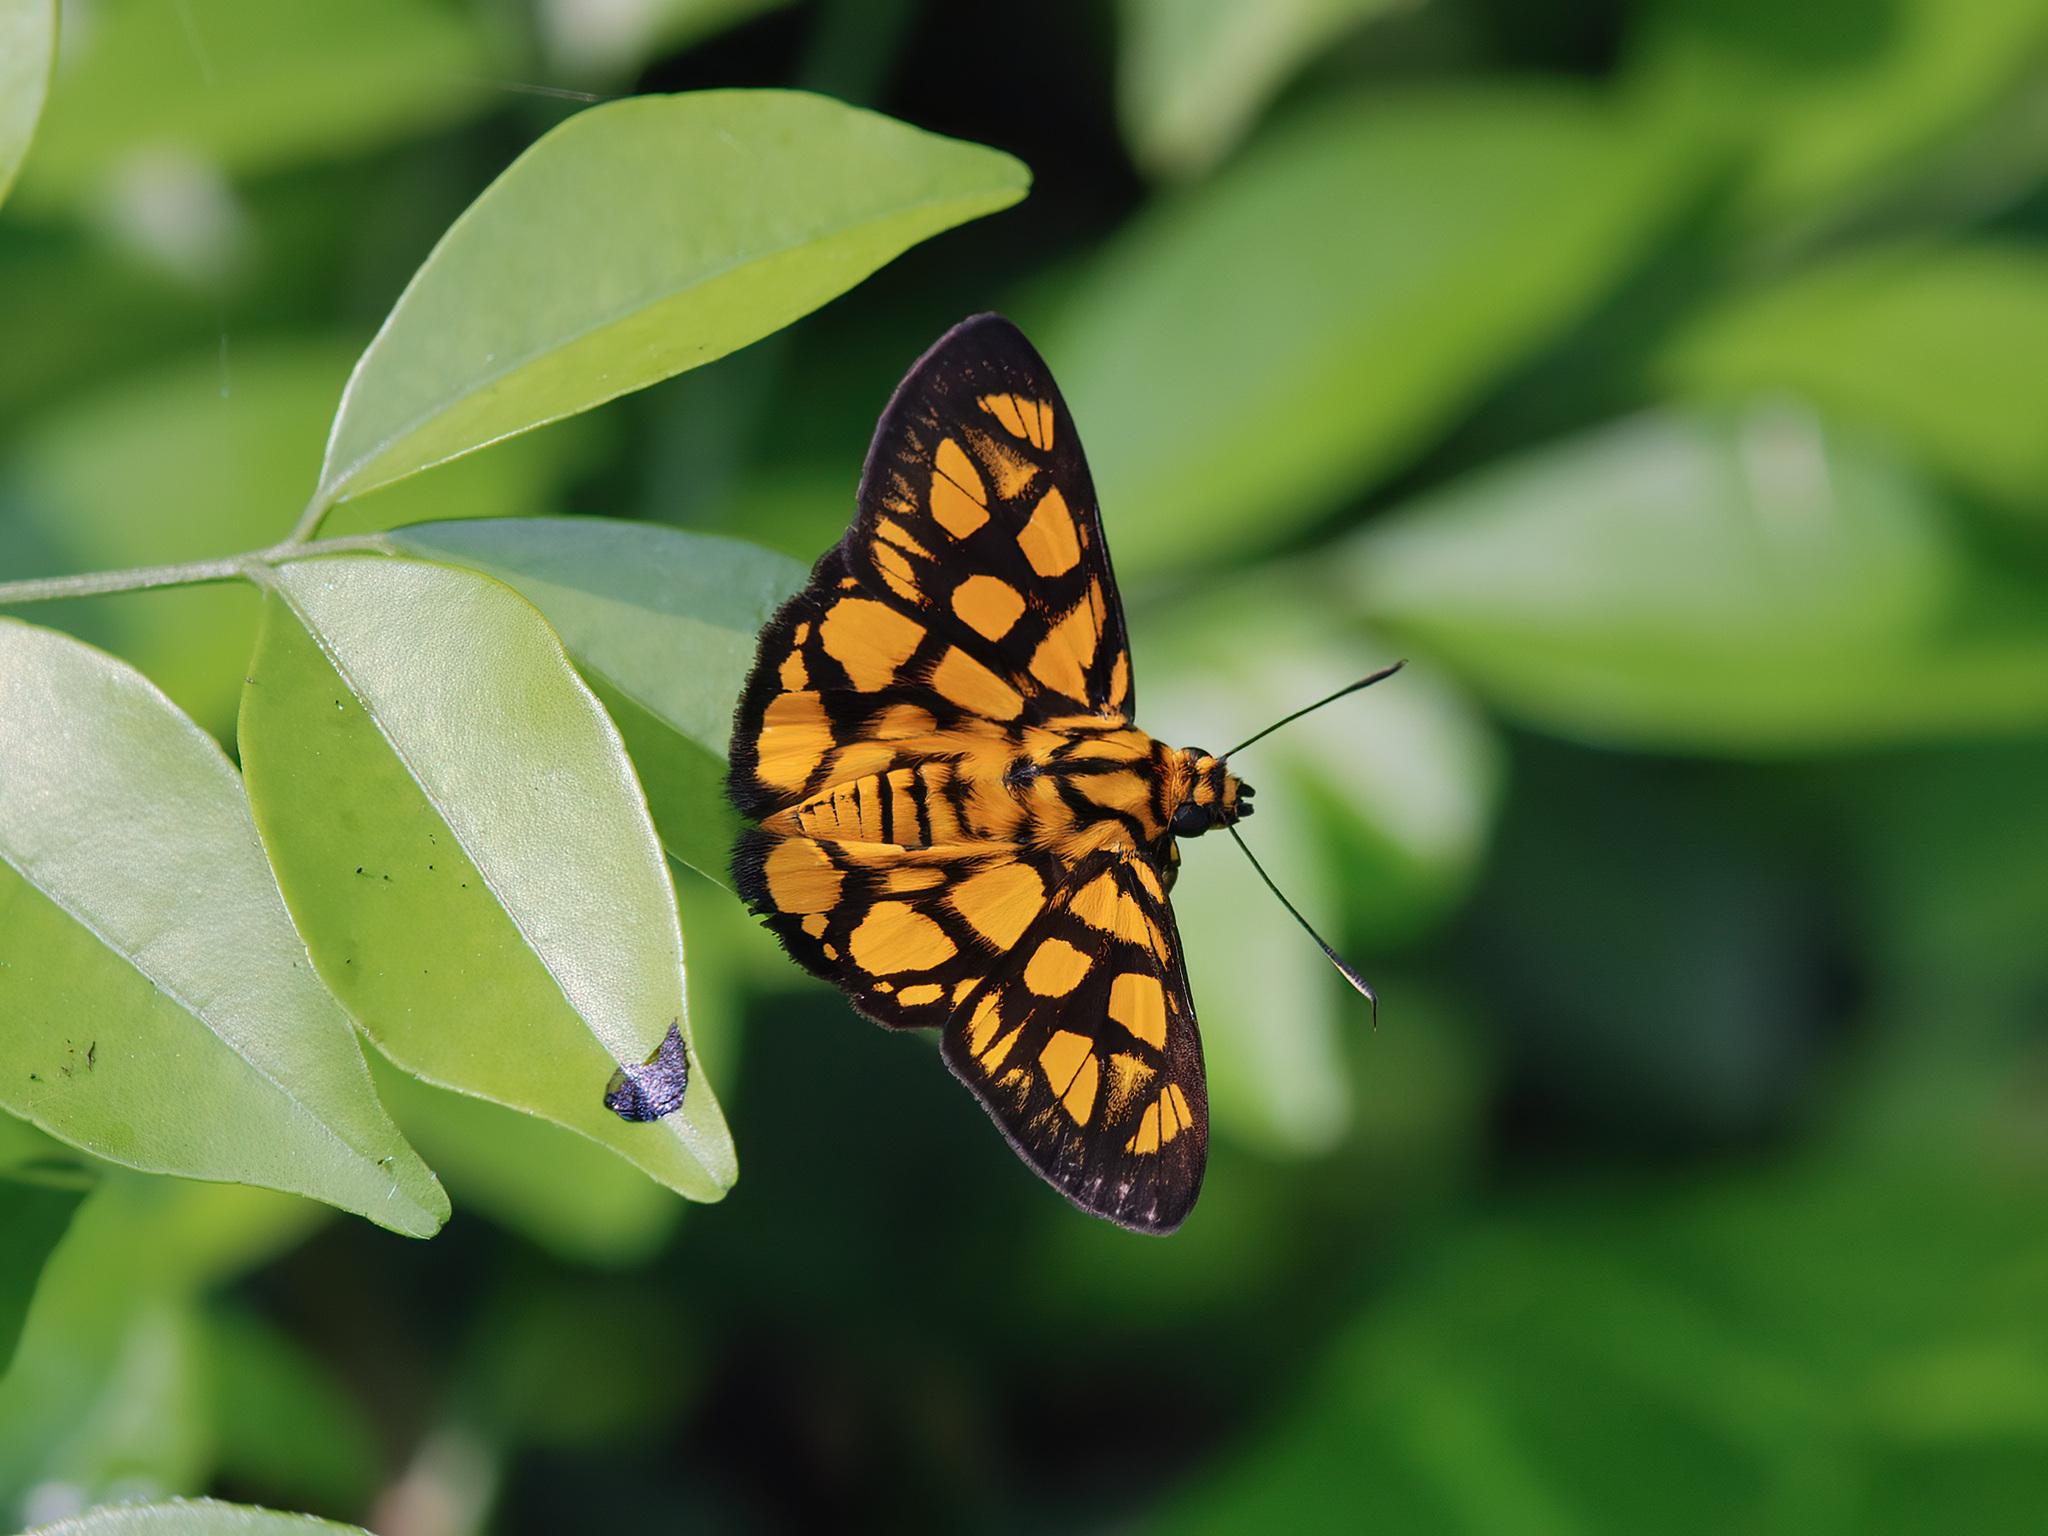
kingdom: Animalia
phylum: Arthropoda
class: Insecta
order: Lepidoptera
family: Hesperiidae
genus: Odina
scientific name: Odina hieroglyphica
